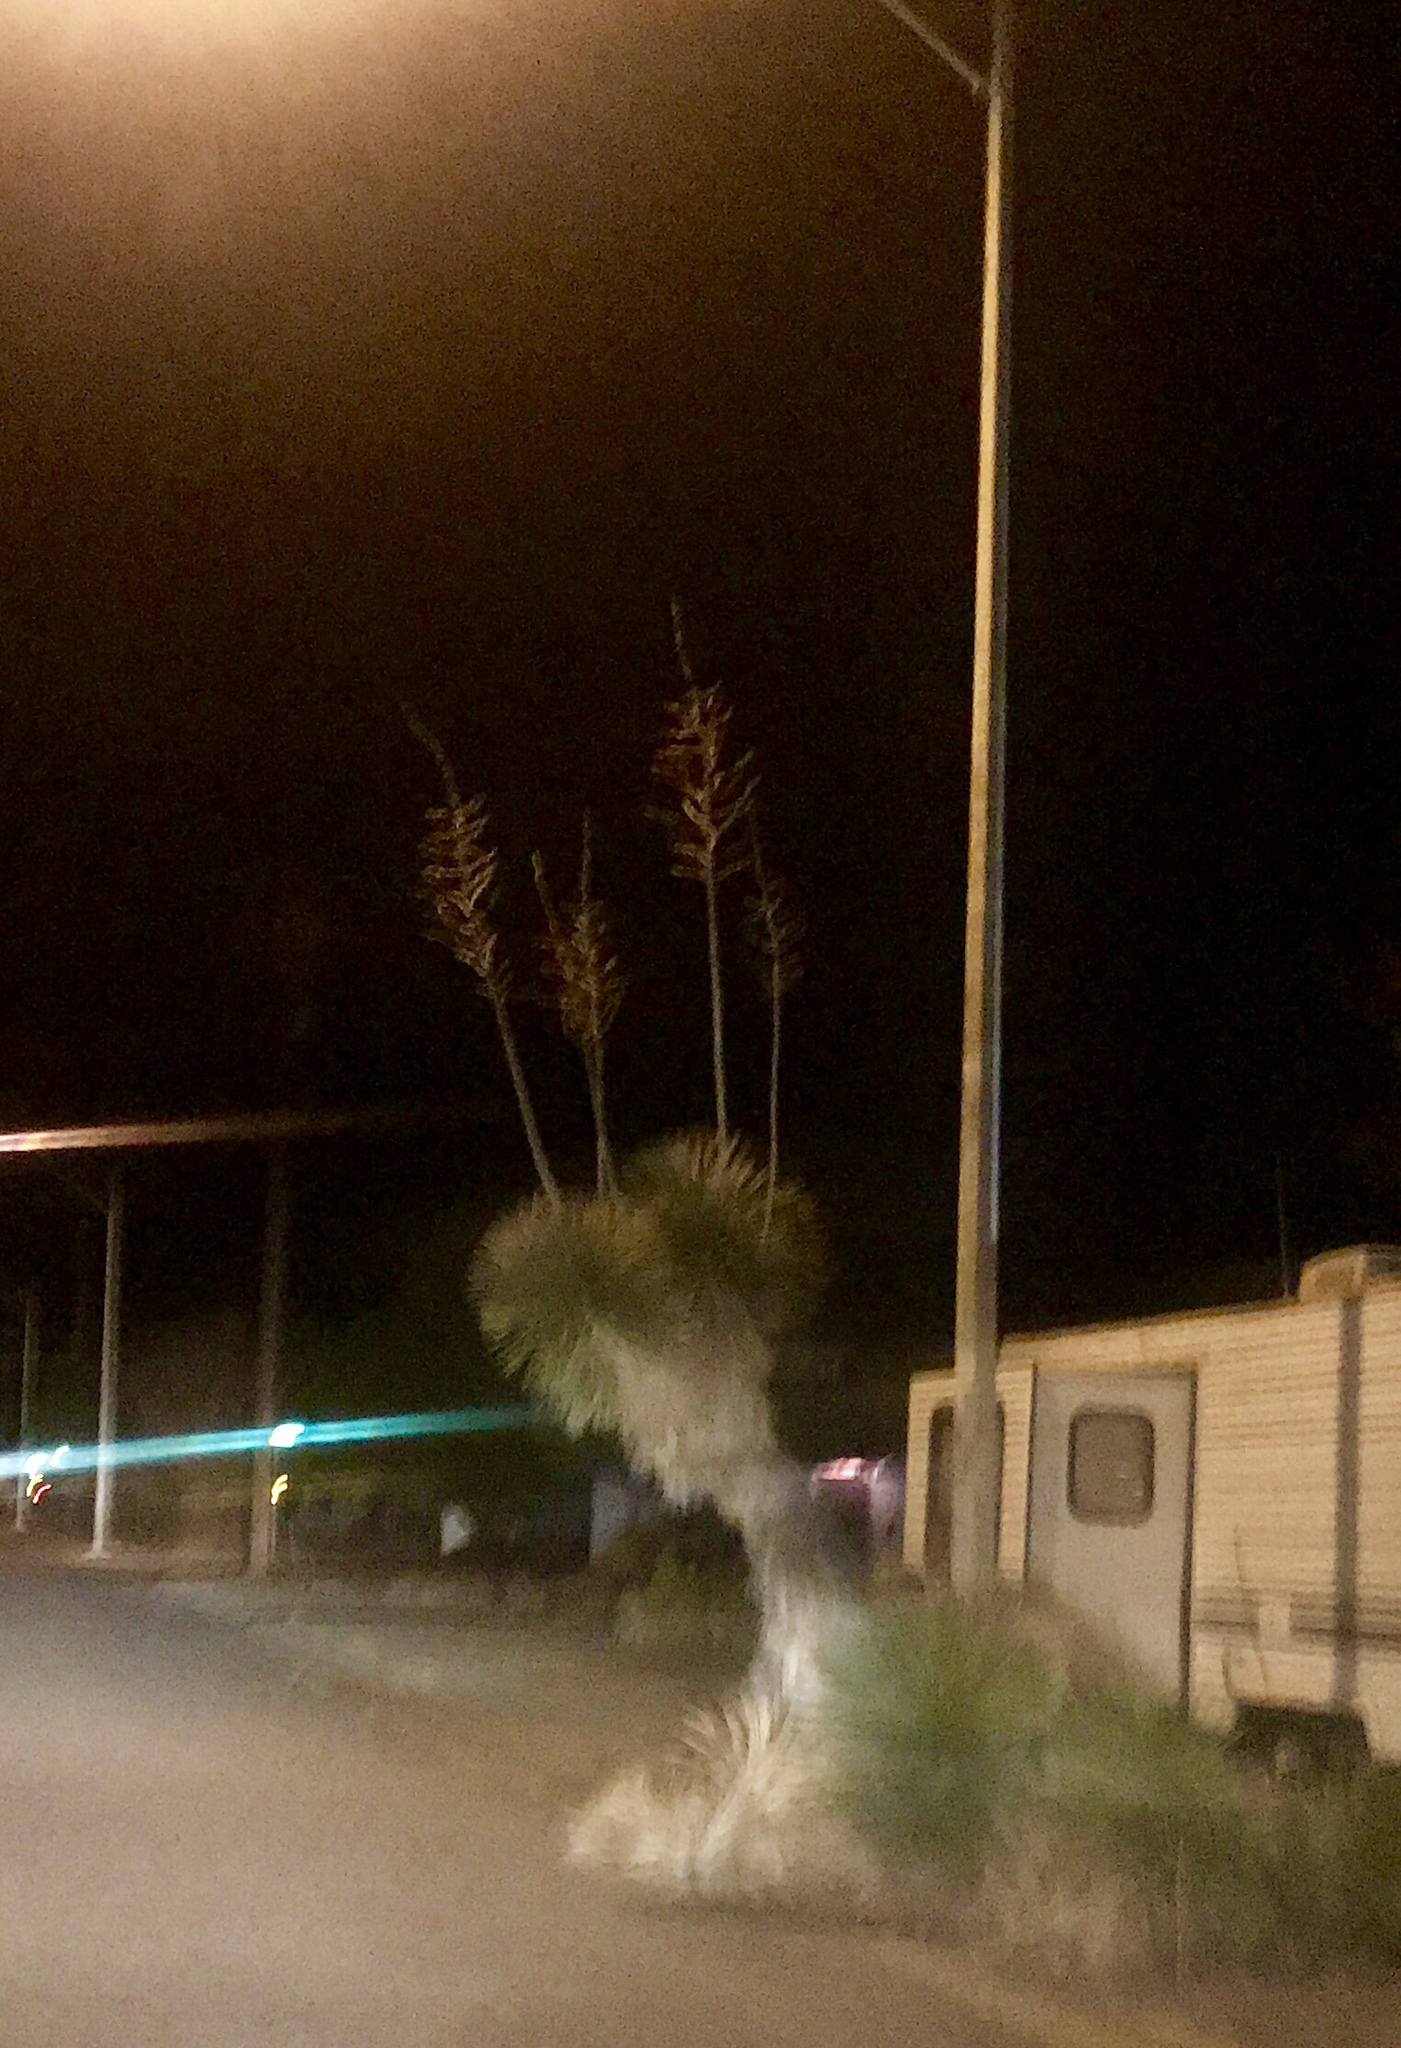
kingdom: Plantae
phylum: Tracheophyta
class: Liliopsida
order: Asparagales
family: Asparagaceae
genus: Yucca
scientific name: Yucca elata
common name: Palmella
